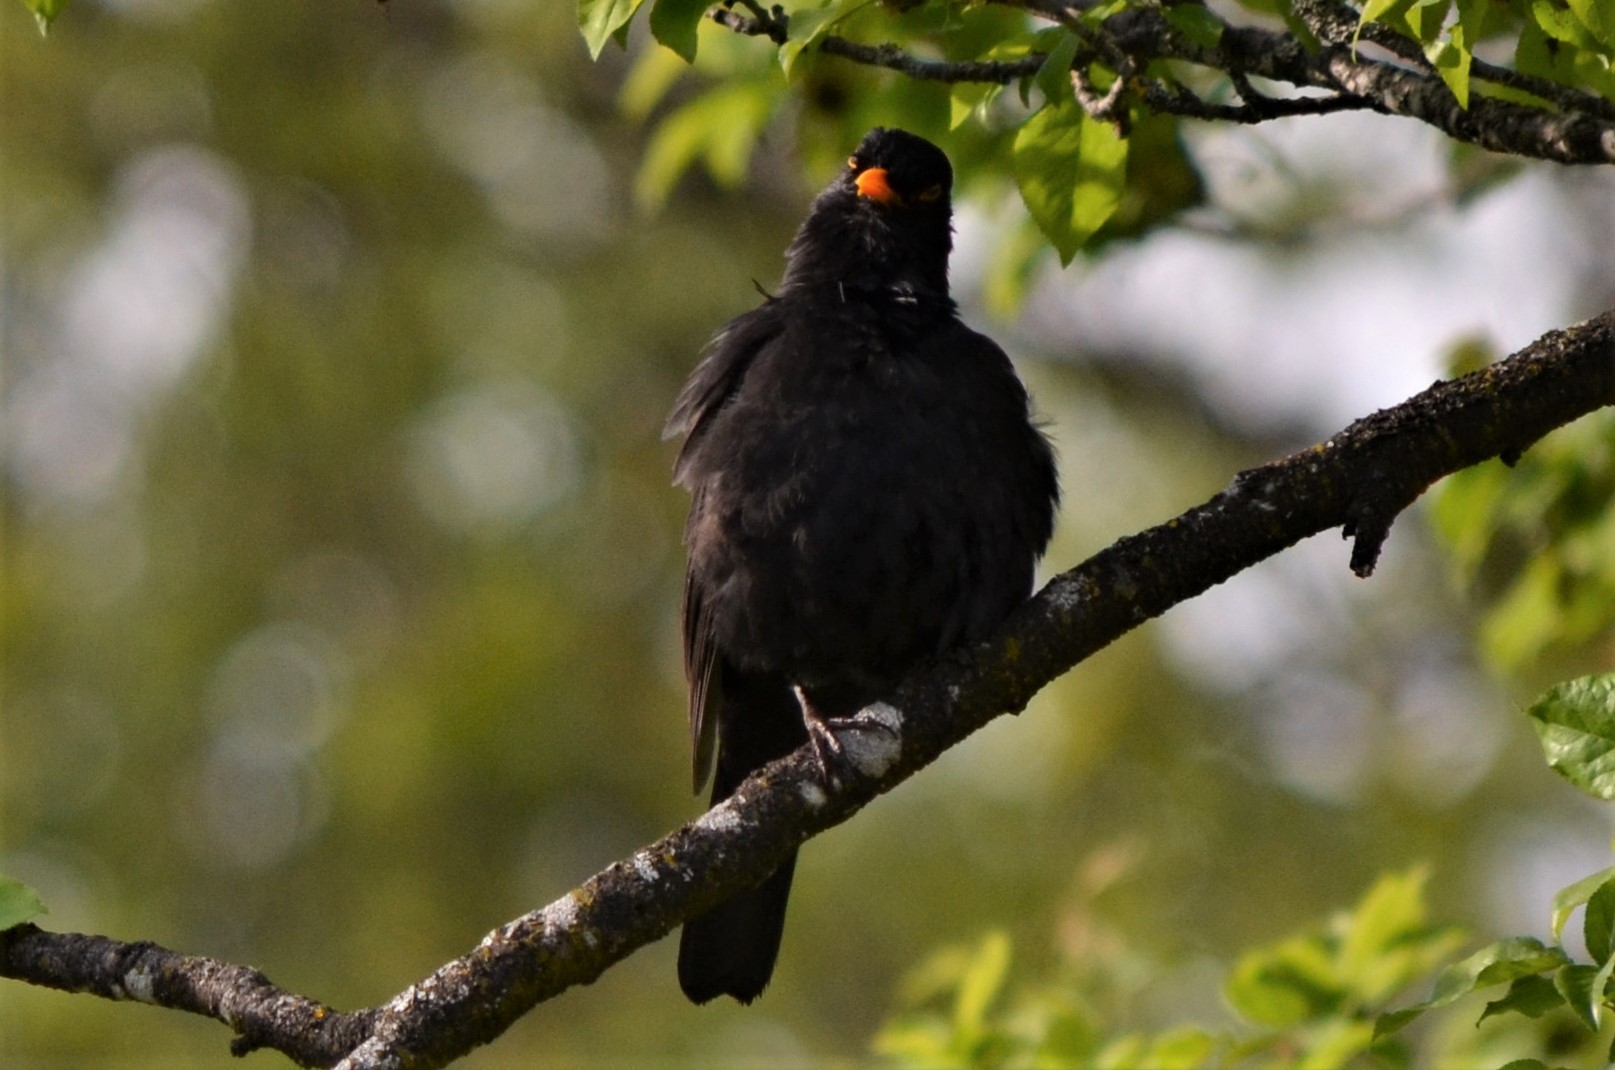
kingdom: Animalia
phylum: Chordata
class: Aves
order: Passeriformes
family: Turdidae
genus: Turdus
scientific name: Turdus merula
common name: Common blackbird
